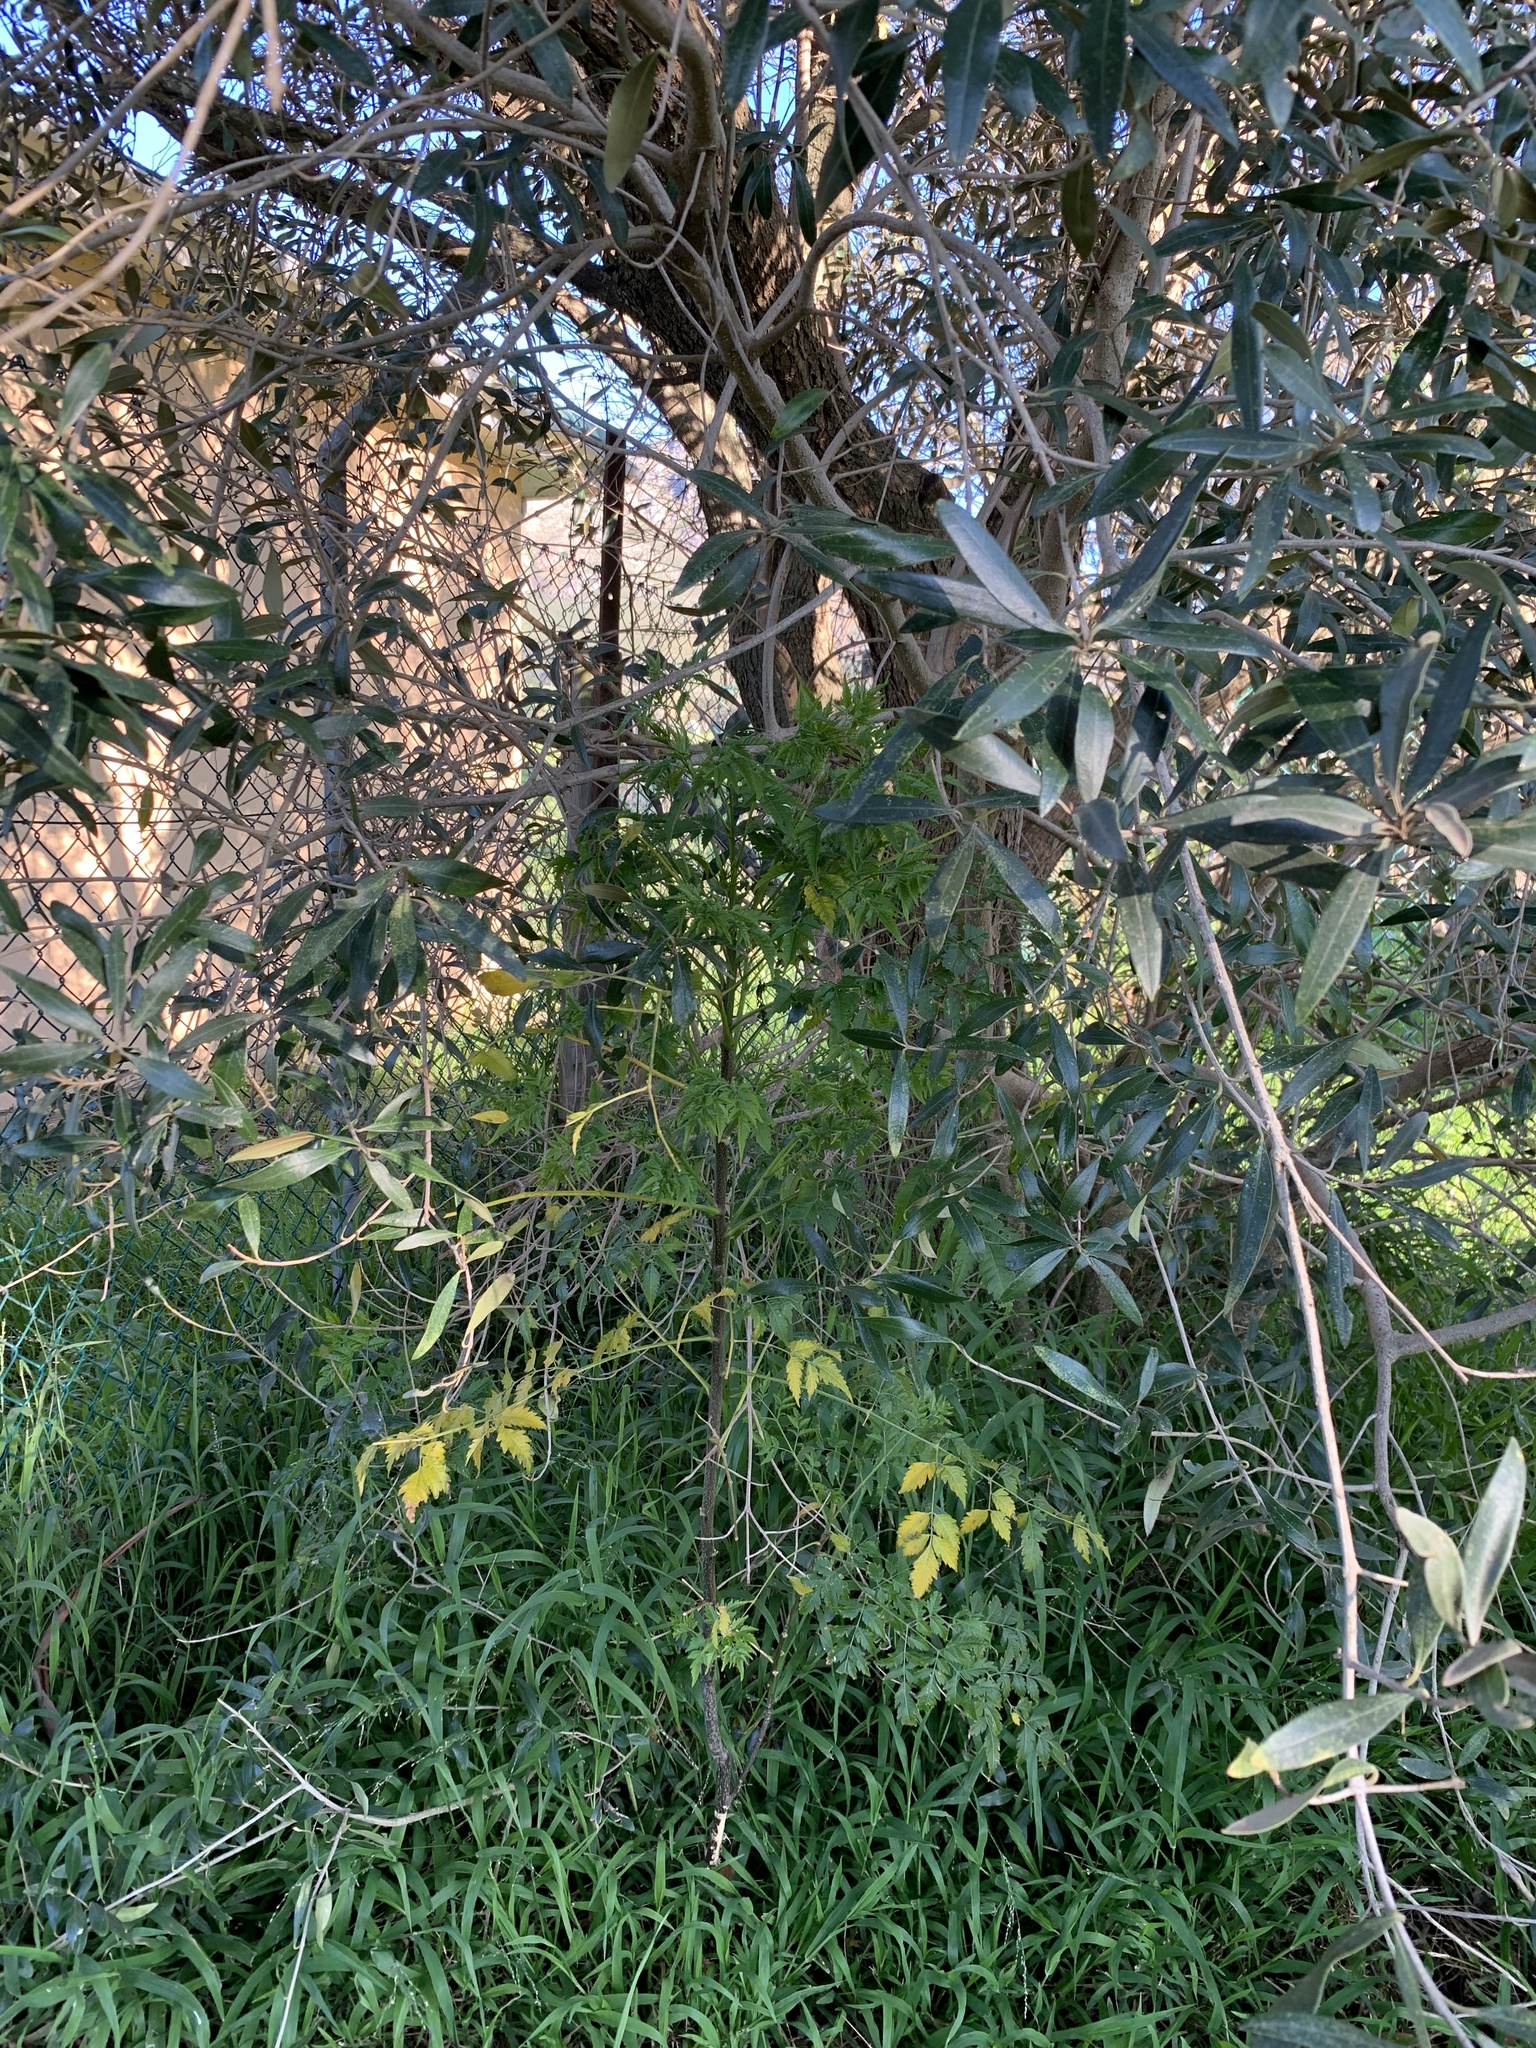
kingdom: Plantae
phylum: Tracheophyta
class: Magnoliopsida
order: Sapindales
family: Meliaceae
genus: Melia
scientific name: Melia azedarach
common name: Chinaberrytree
